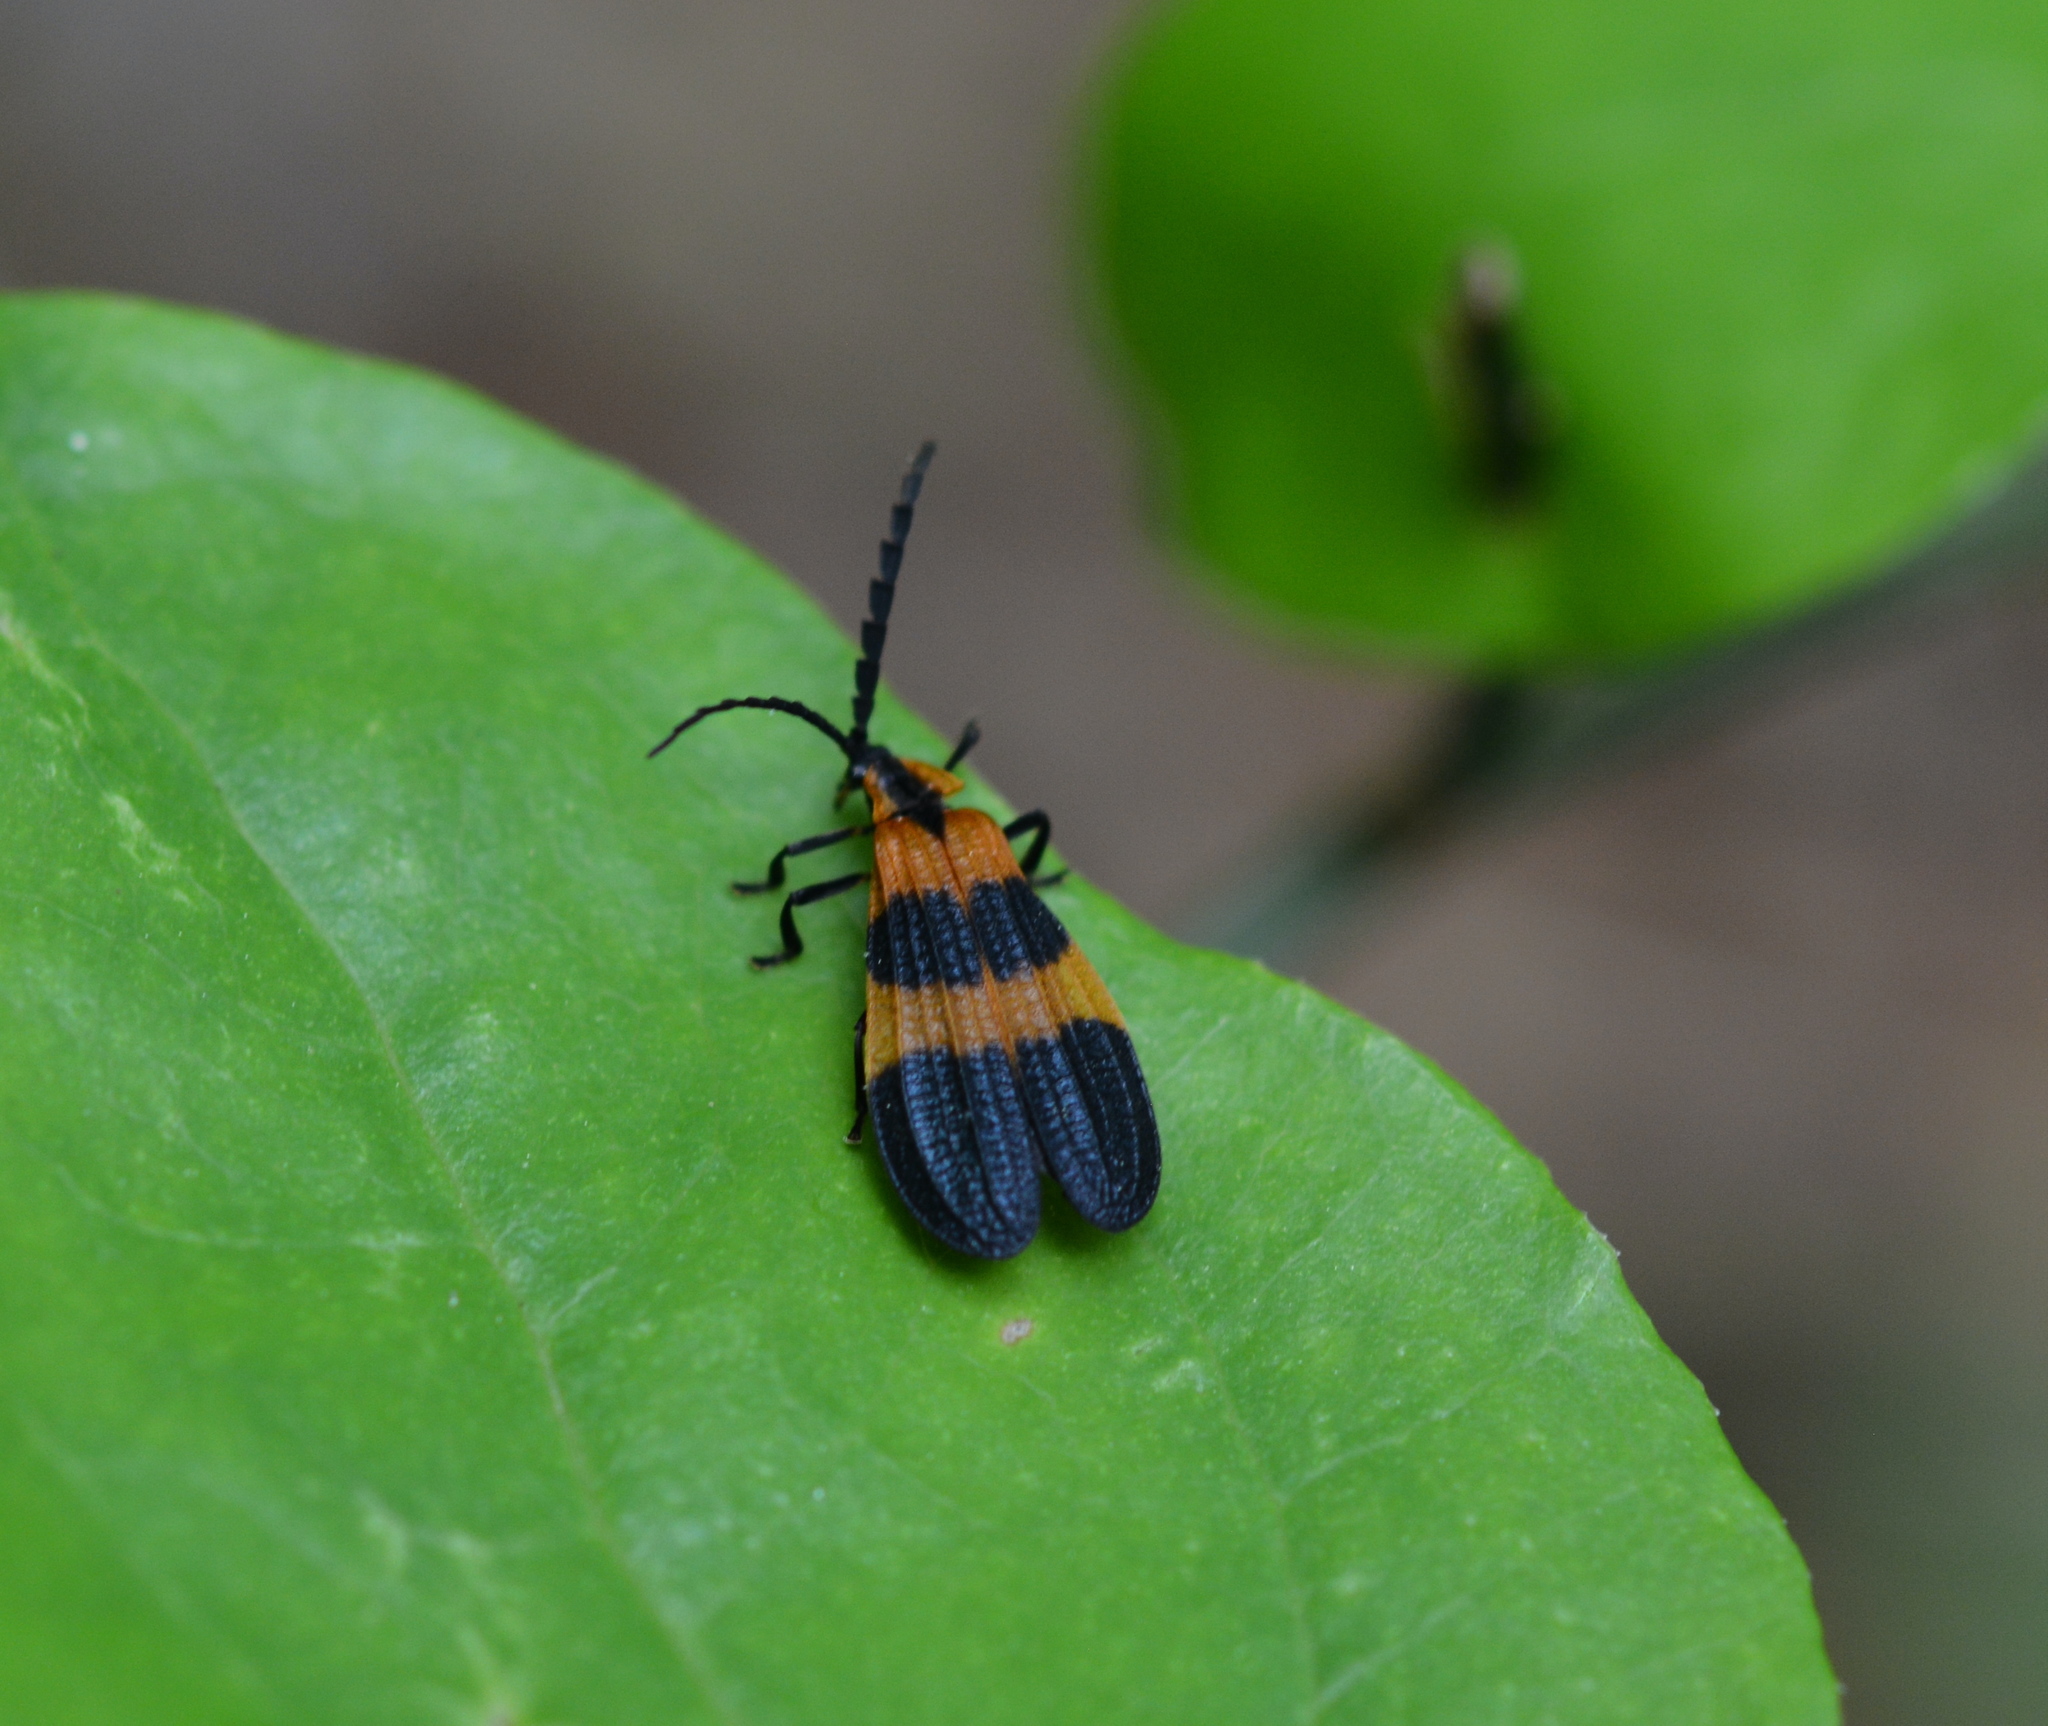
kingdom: Animalia
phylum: Arthropoda
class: Insecta
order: Coleoptera
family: Lycidae
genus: Calopteron
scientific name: Calopteron terminale
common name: End band net-winged beetle
